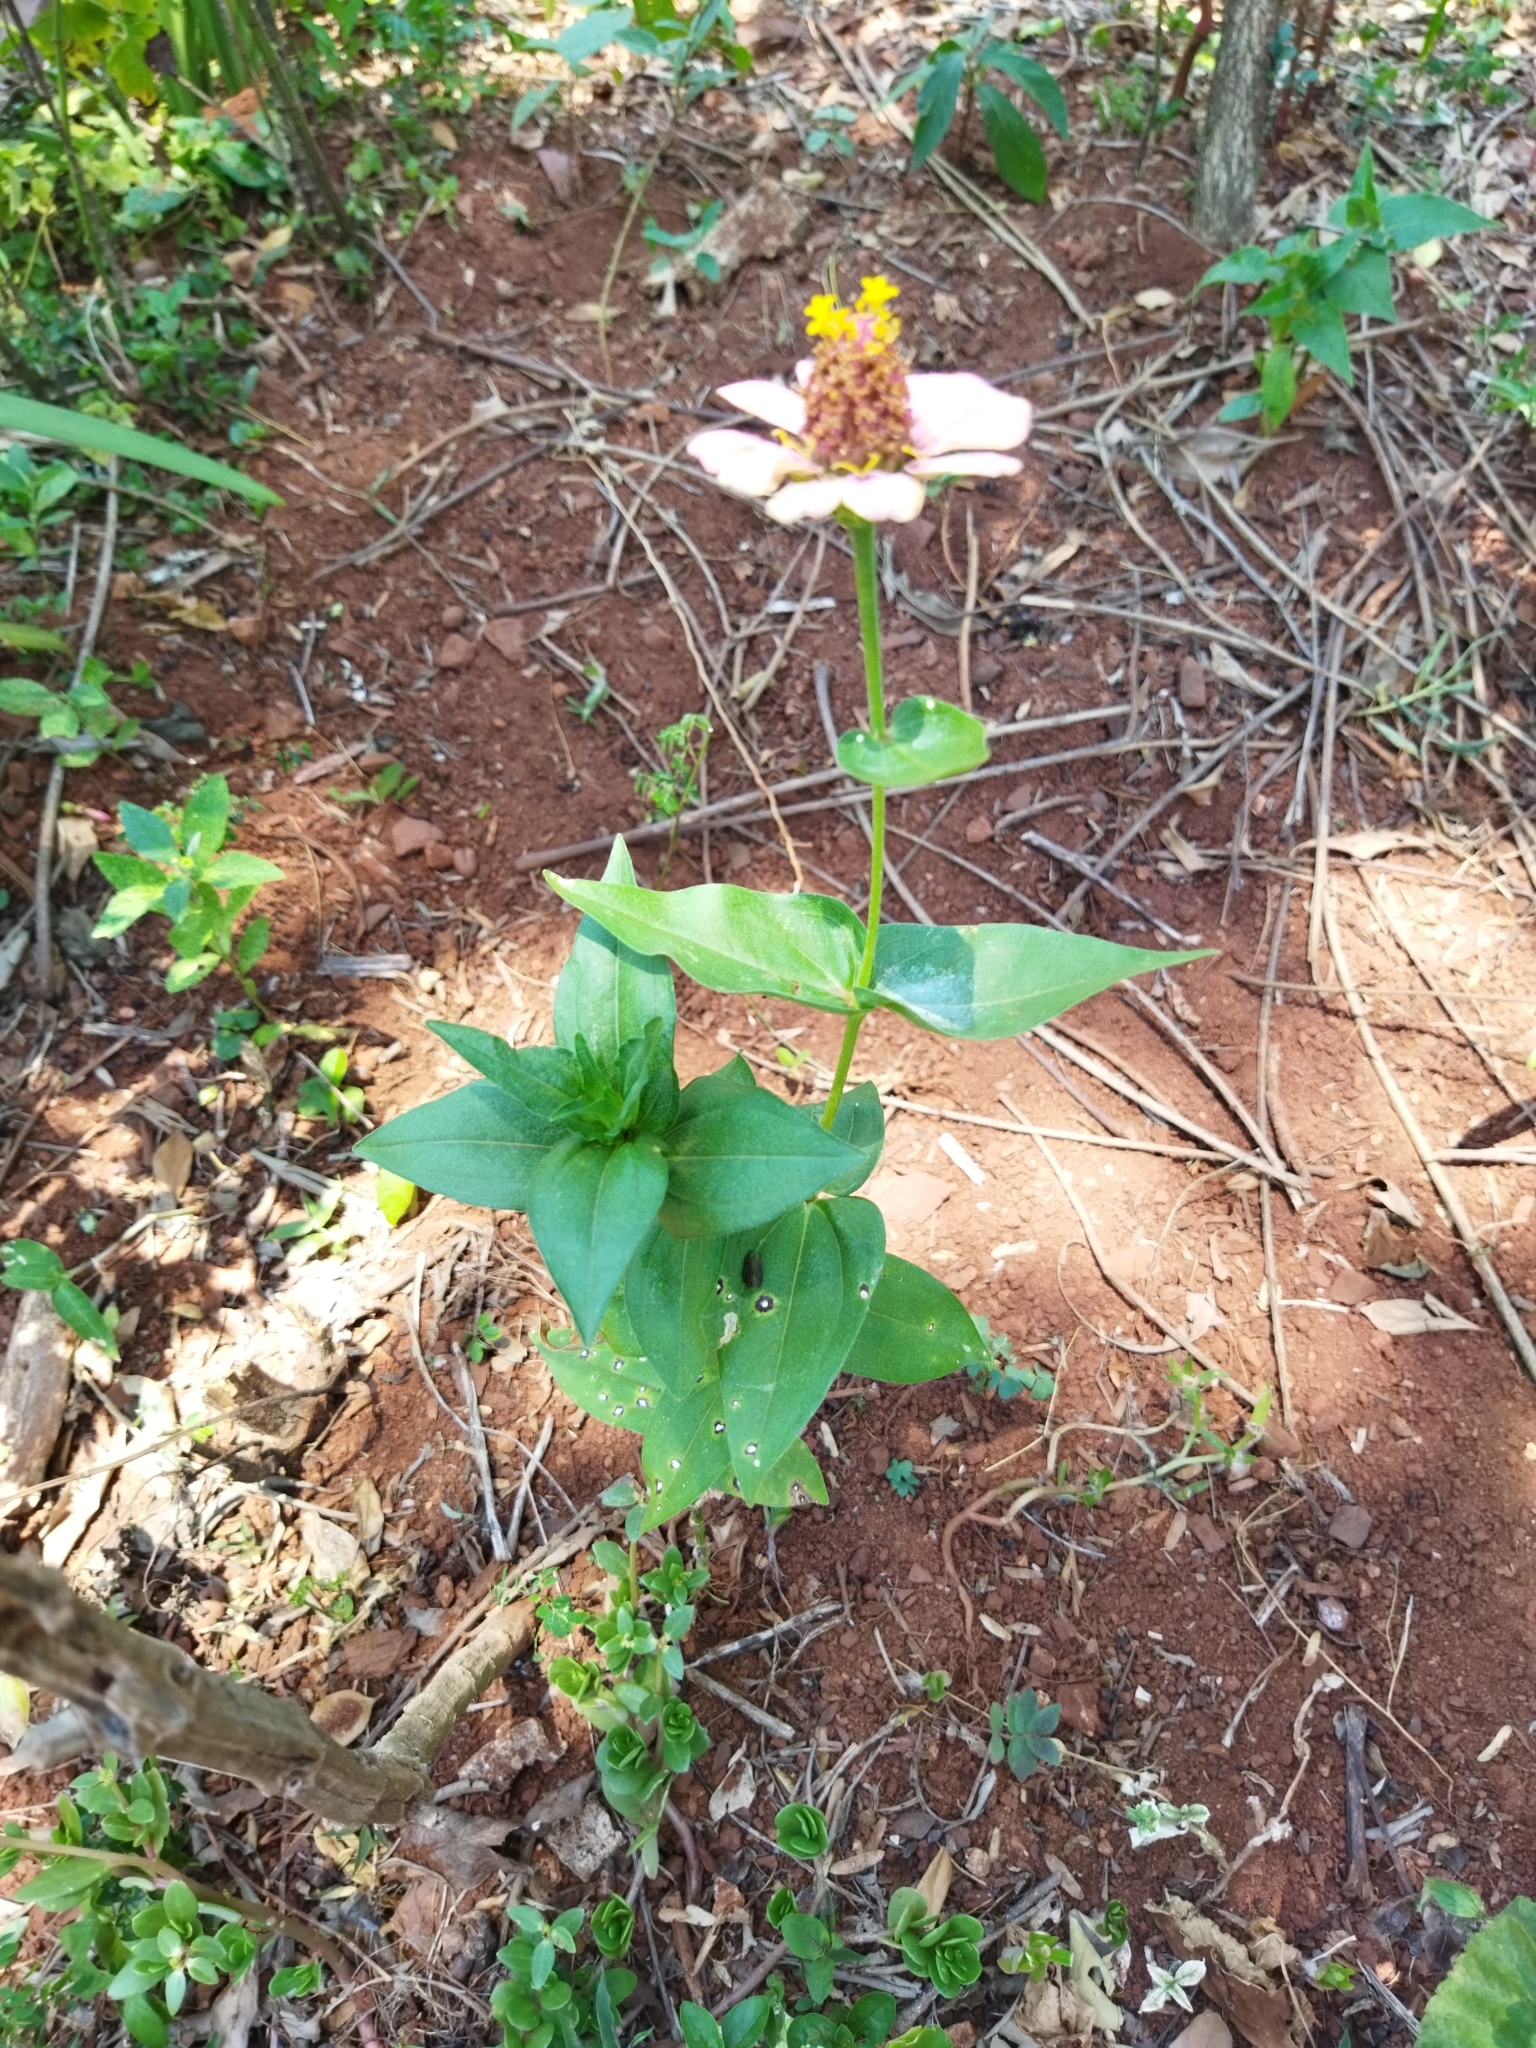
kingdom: Plantae
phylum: Tracheophyta
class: Magnoliopsida
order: Asterales
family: Asteraceae
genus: Zinnia
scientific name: Zinnia elegans
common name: Youth-and-age
